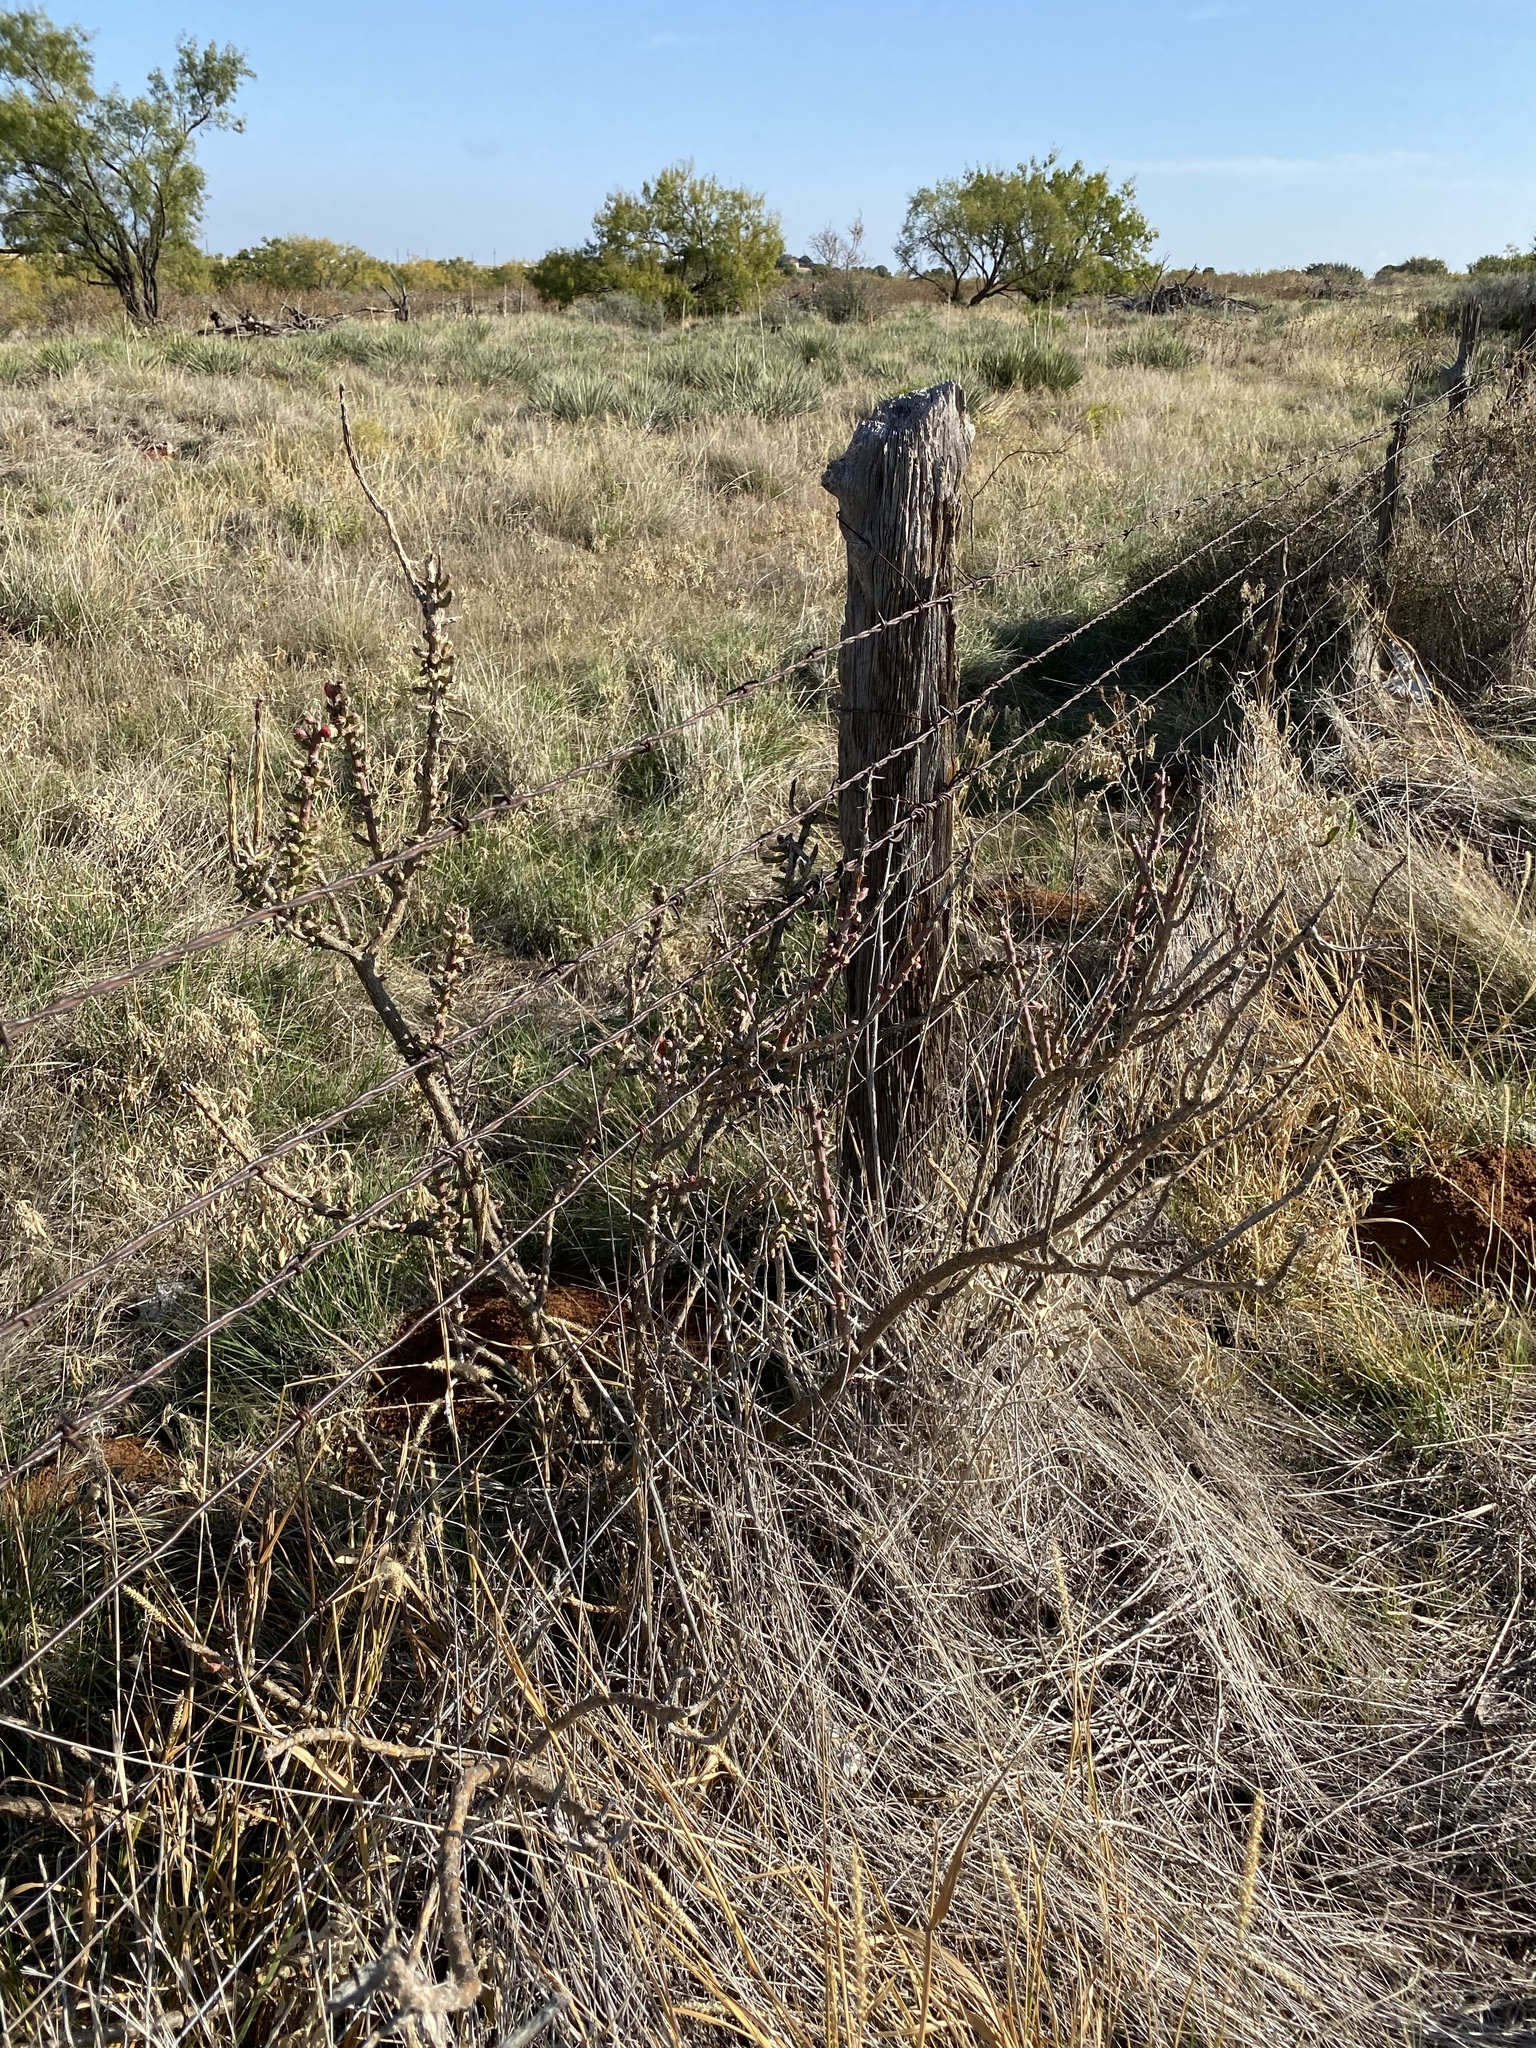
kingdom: Plantae
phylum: Tracheophyta
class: Magnoliopsida
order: Caryophyllales
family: Cactaceae
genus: Cylindropuntia
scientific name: Cylindropuntia leptocaulis
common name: Christmas cactus
